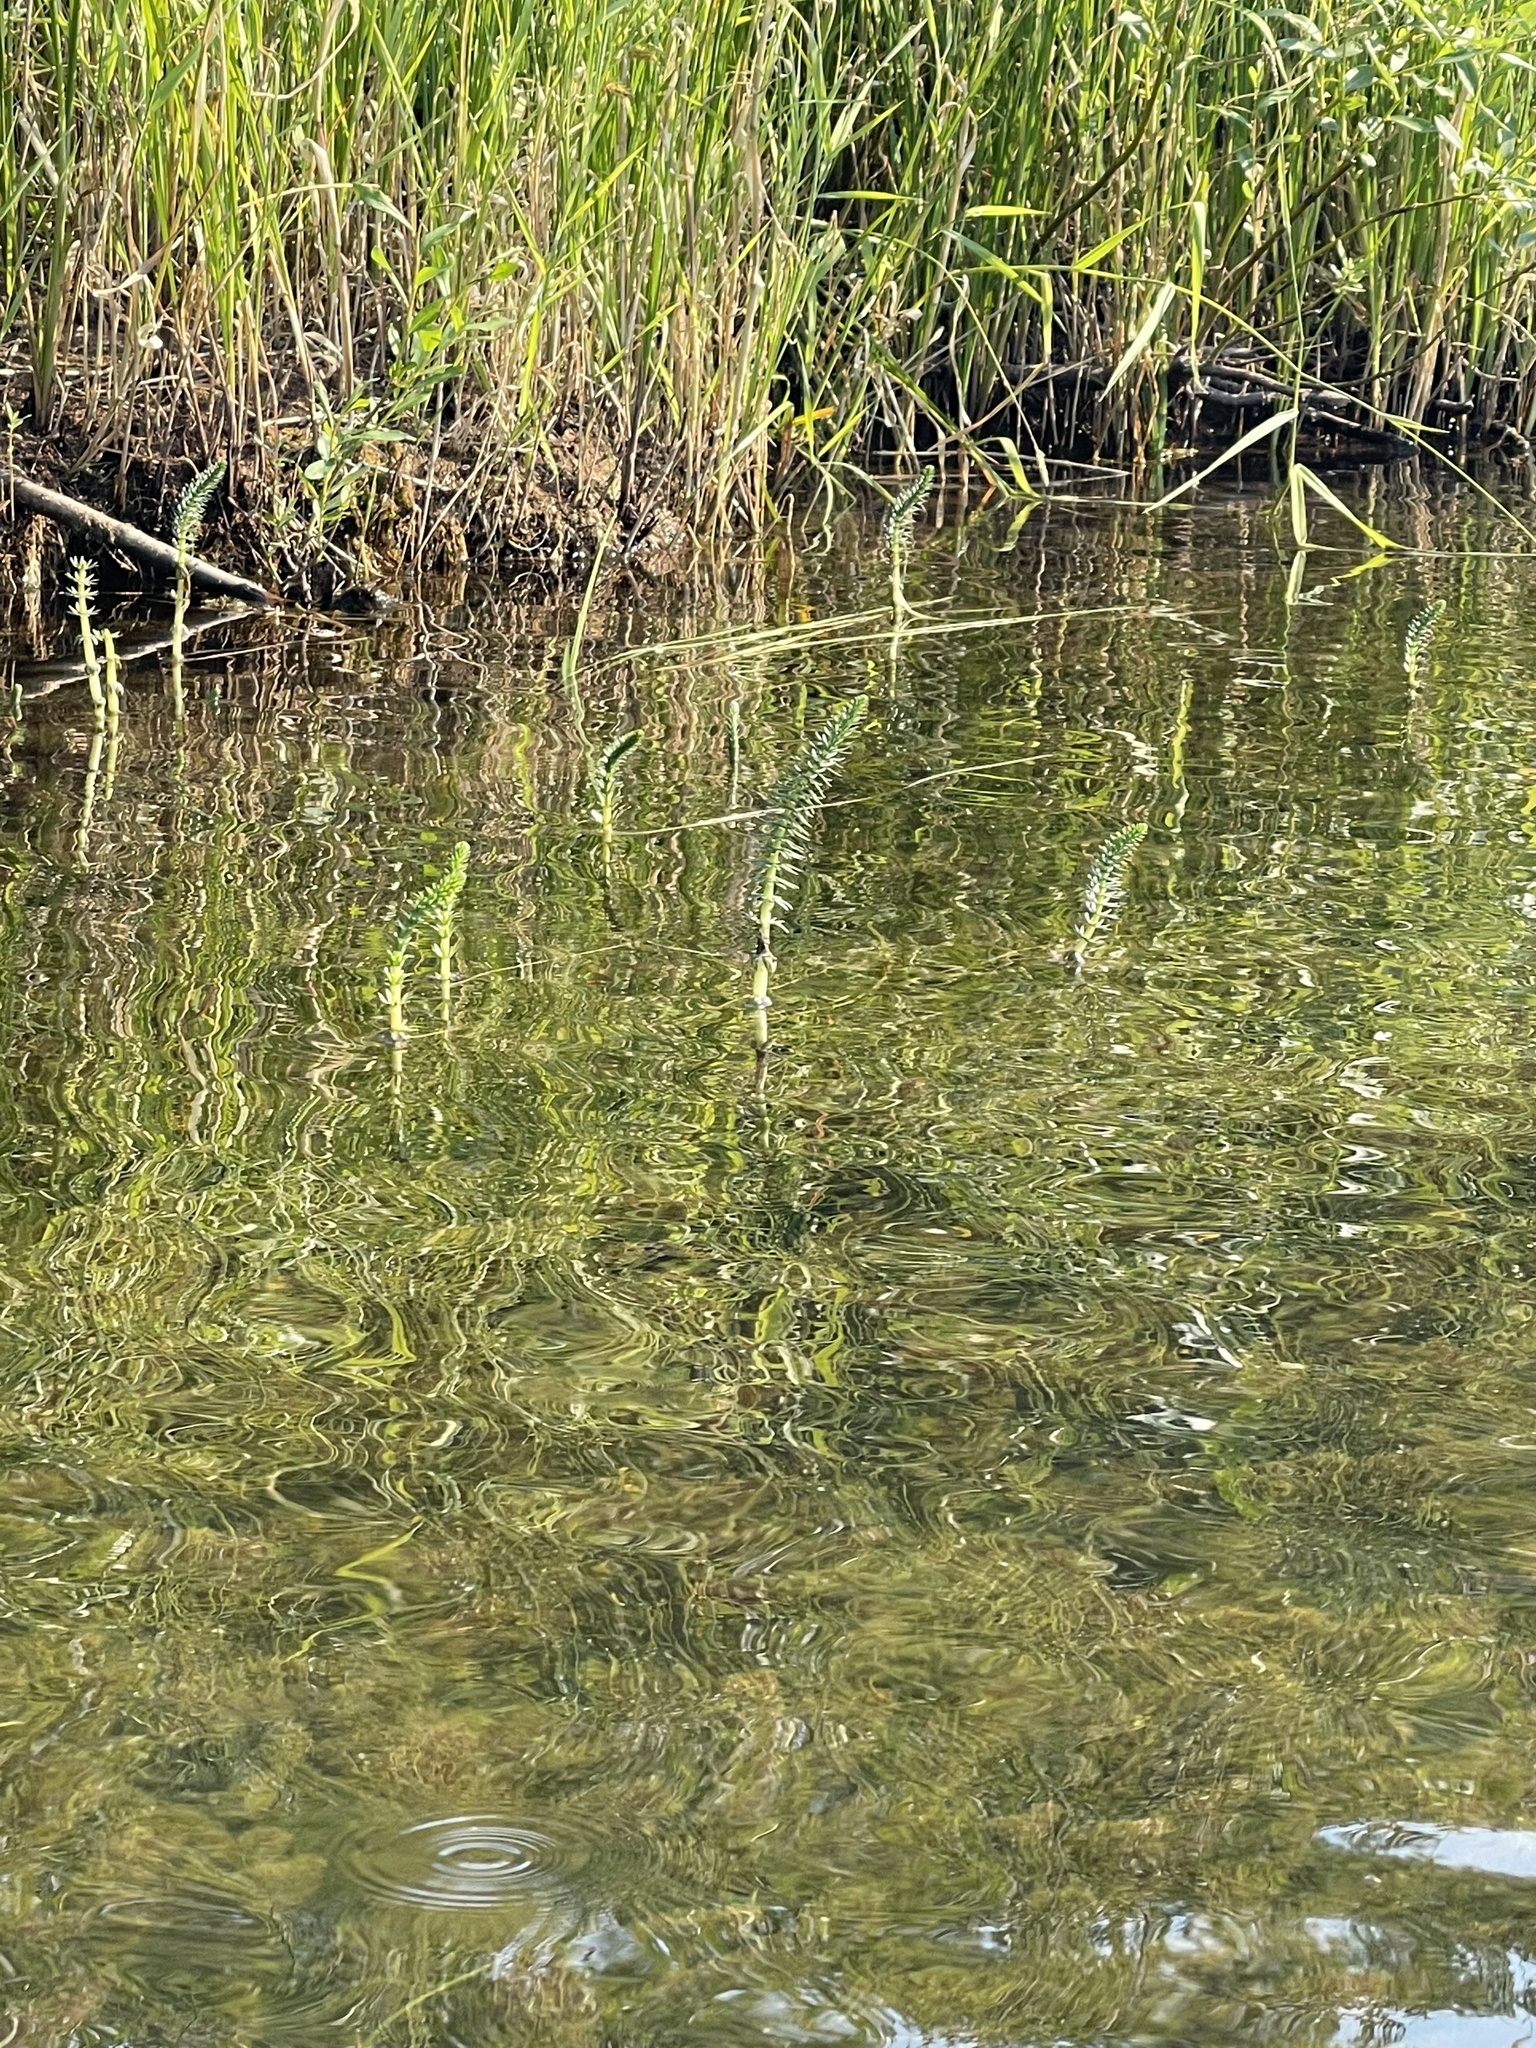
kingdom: Plantae
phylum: Tracheophyta
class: Magnoliopsida
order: Lamiales
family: Plantaginaceae
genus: Hippuris
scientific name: Hippuris vulgaris
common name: Mare's-tail
